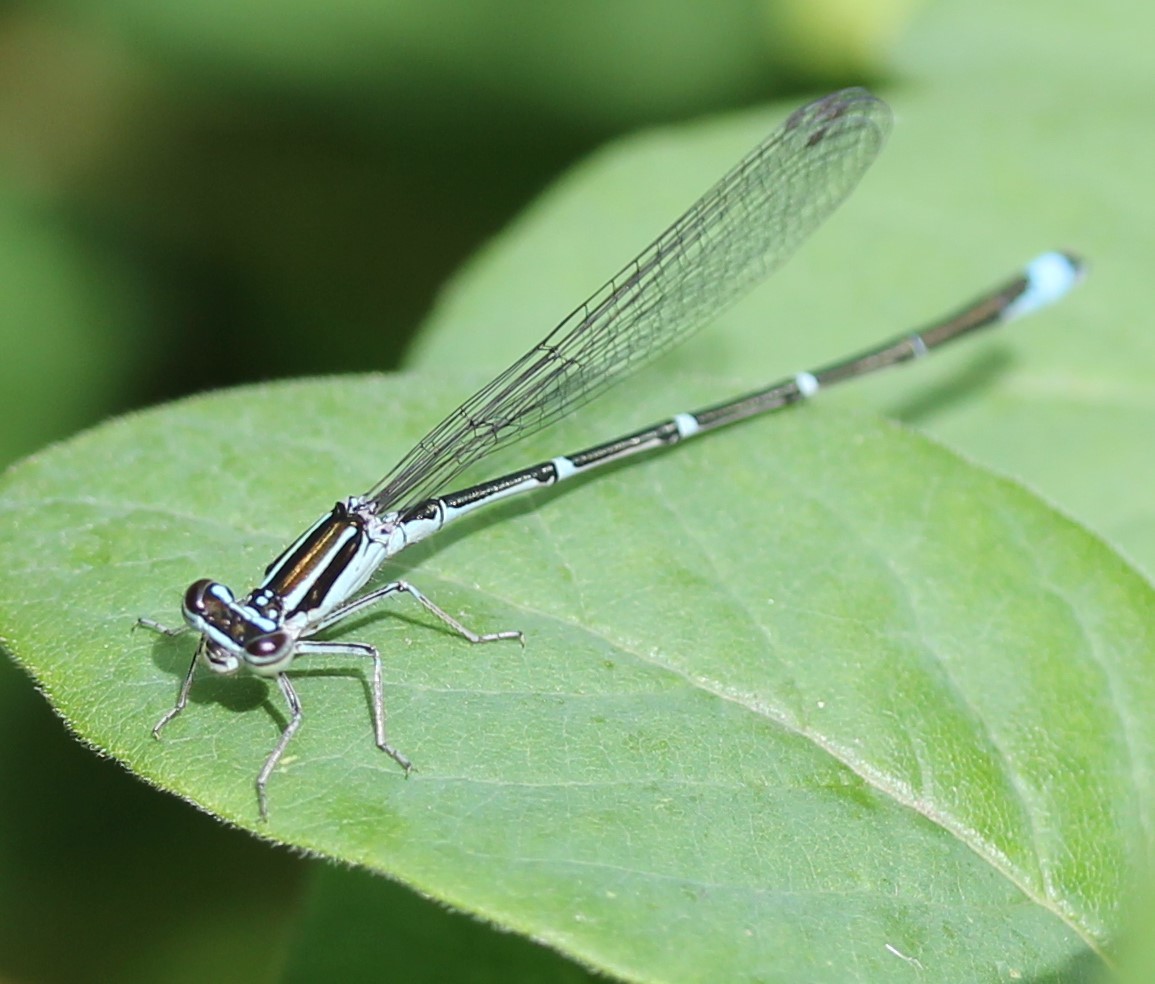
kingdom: Animalia
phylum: Arthropoda
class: Insecta
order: Odonata
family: Coenagrionidae
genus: Enallagma
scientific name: Enallagma exsulans
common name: Stream bluet
